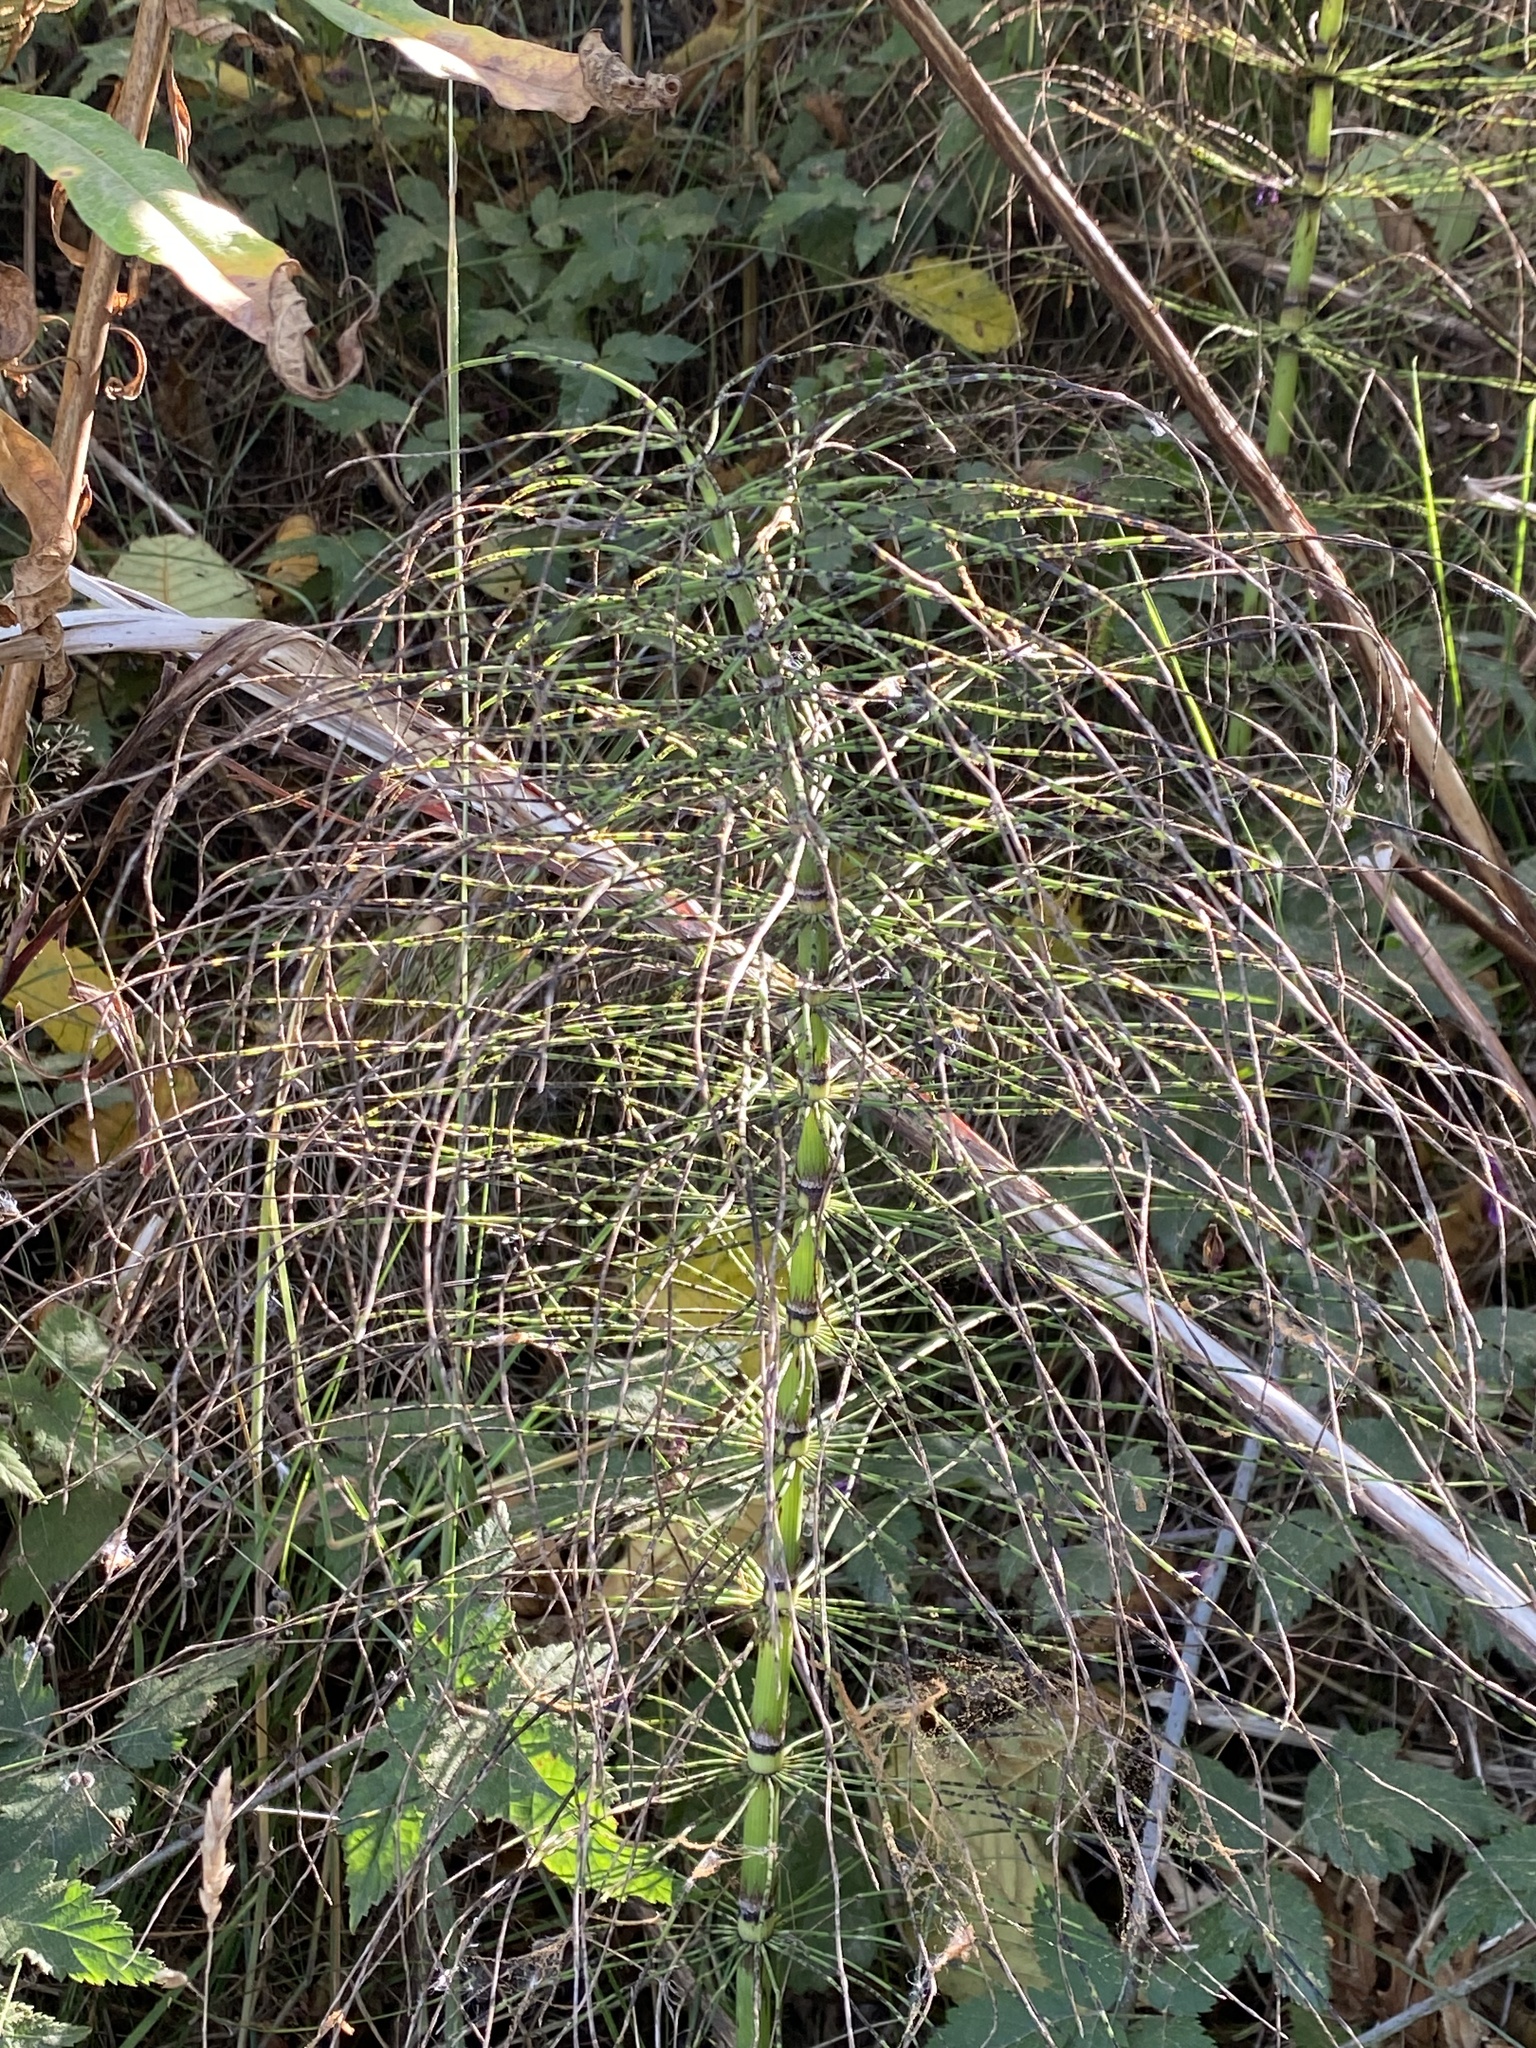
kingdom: Plantae
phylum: Tracheophyta
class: Polypodiopsida
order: Equisetales
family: Equisetaceae
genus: Equisetum
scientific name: Equisetum braunii
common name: Braun's horsetail
